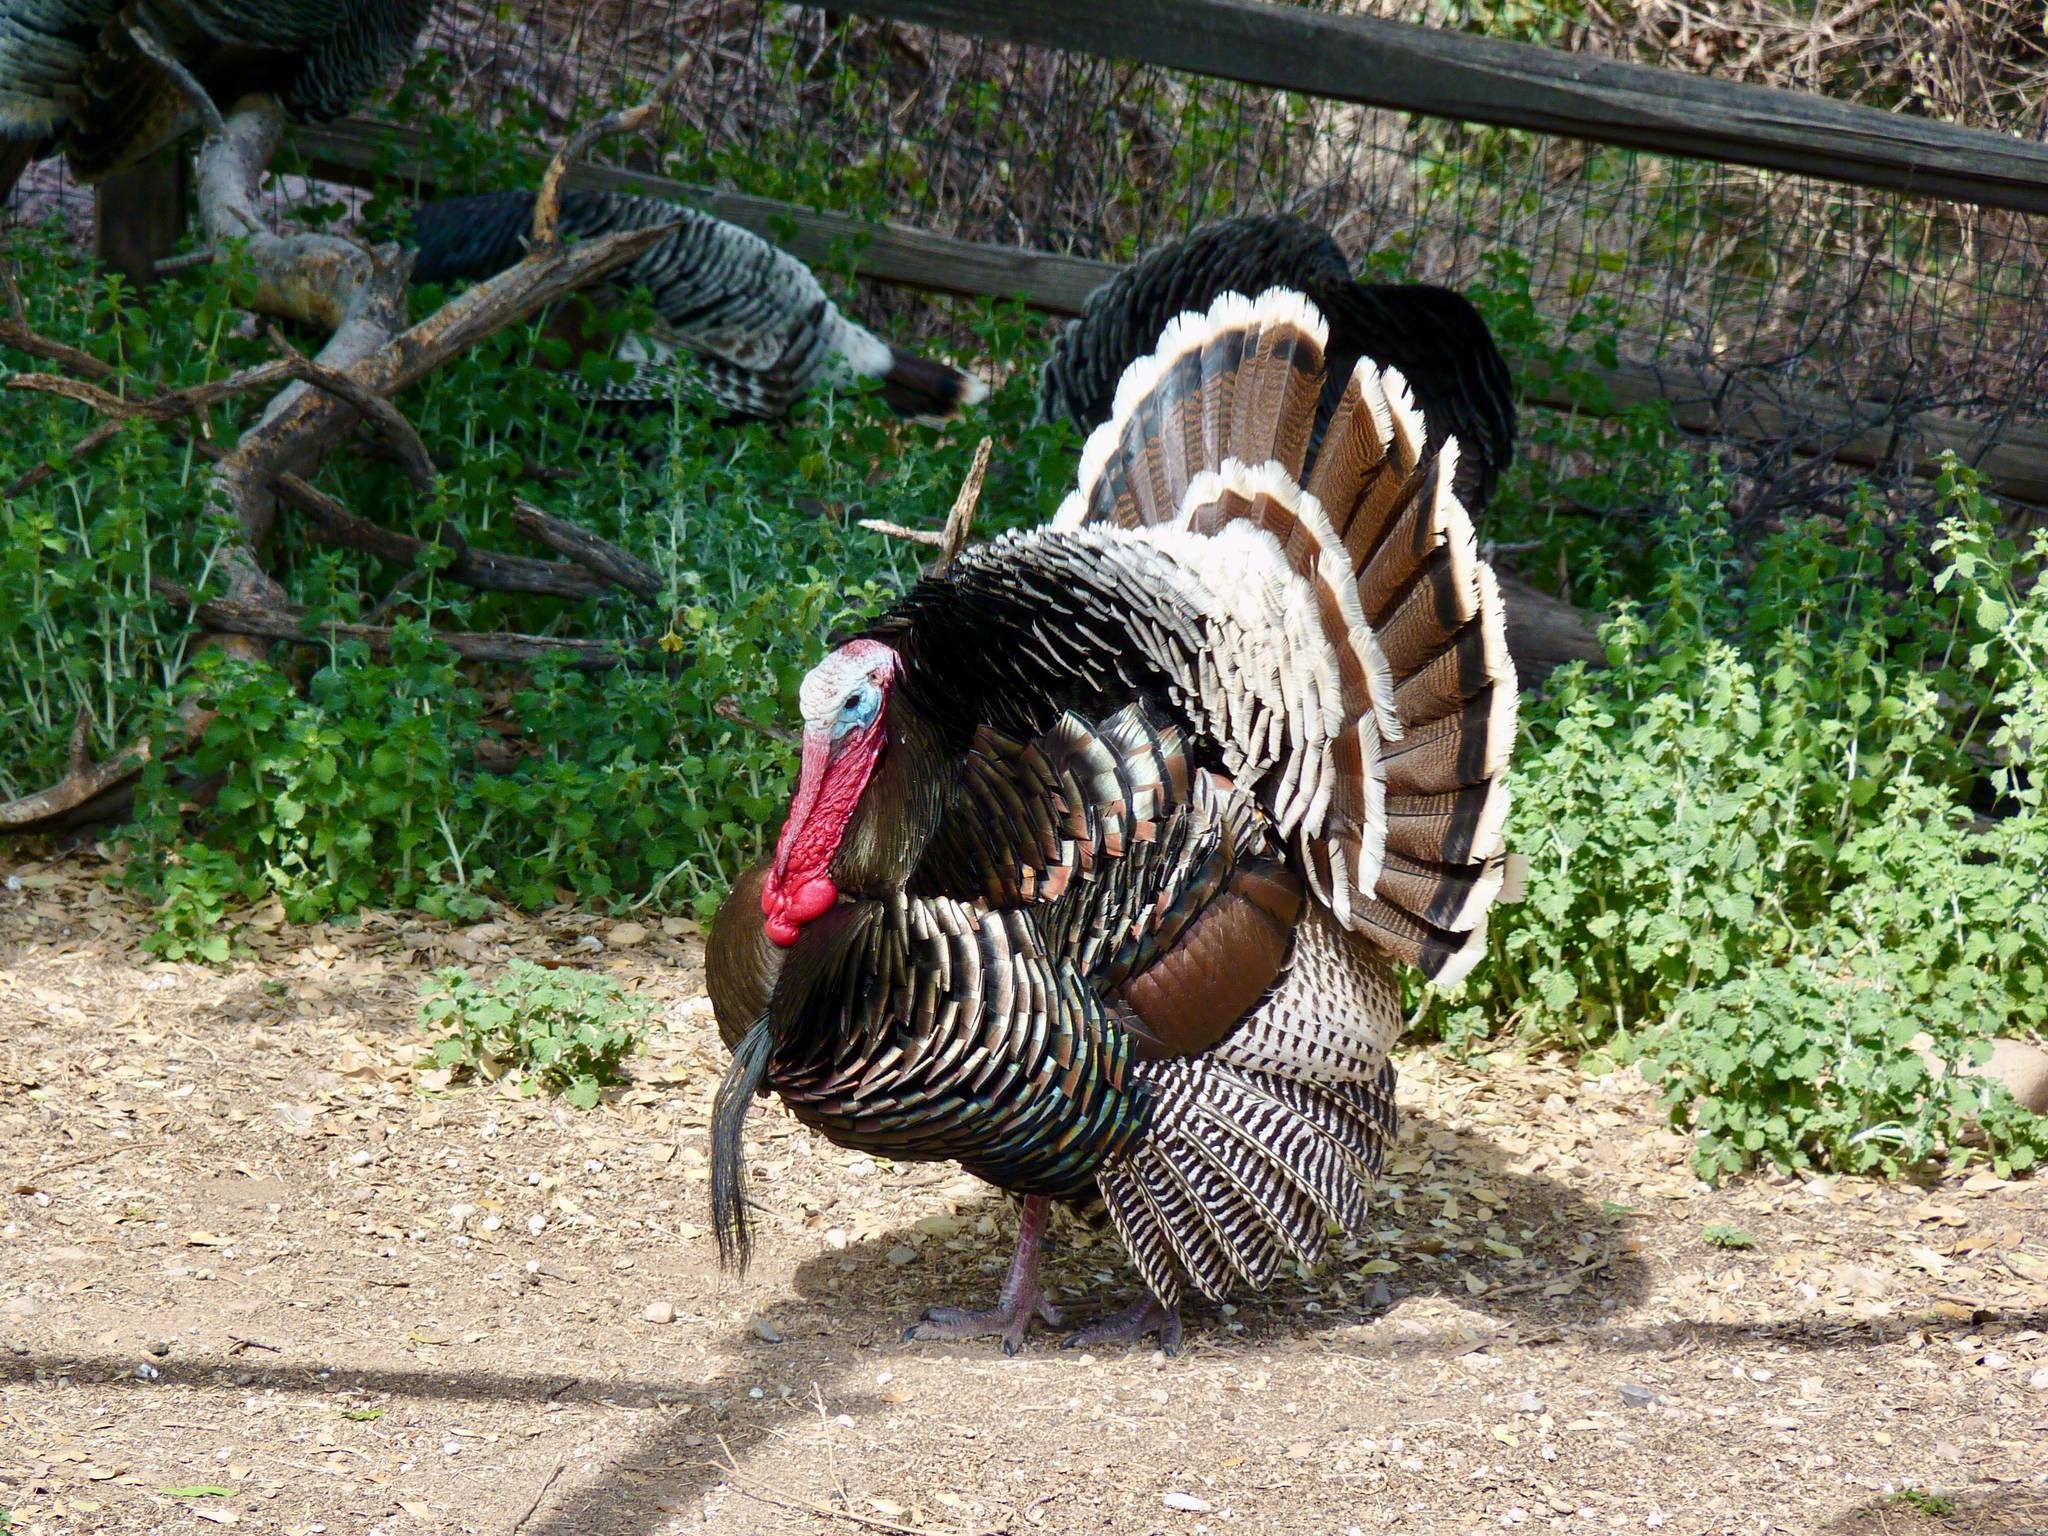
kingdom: Animalia
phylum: Chordata
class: Aves
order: Galliformes
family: Phasianidae
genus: Meleagris
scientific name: Meleagris gallopavo
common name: Wild turkey
